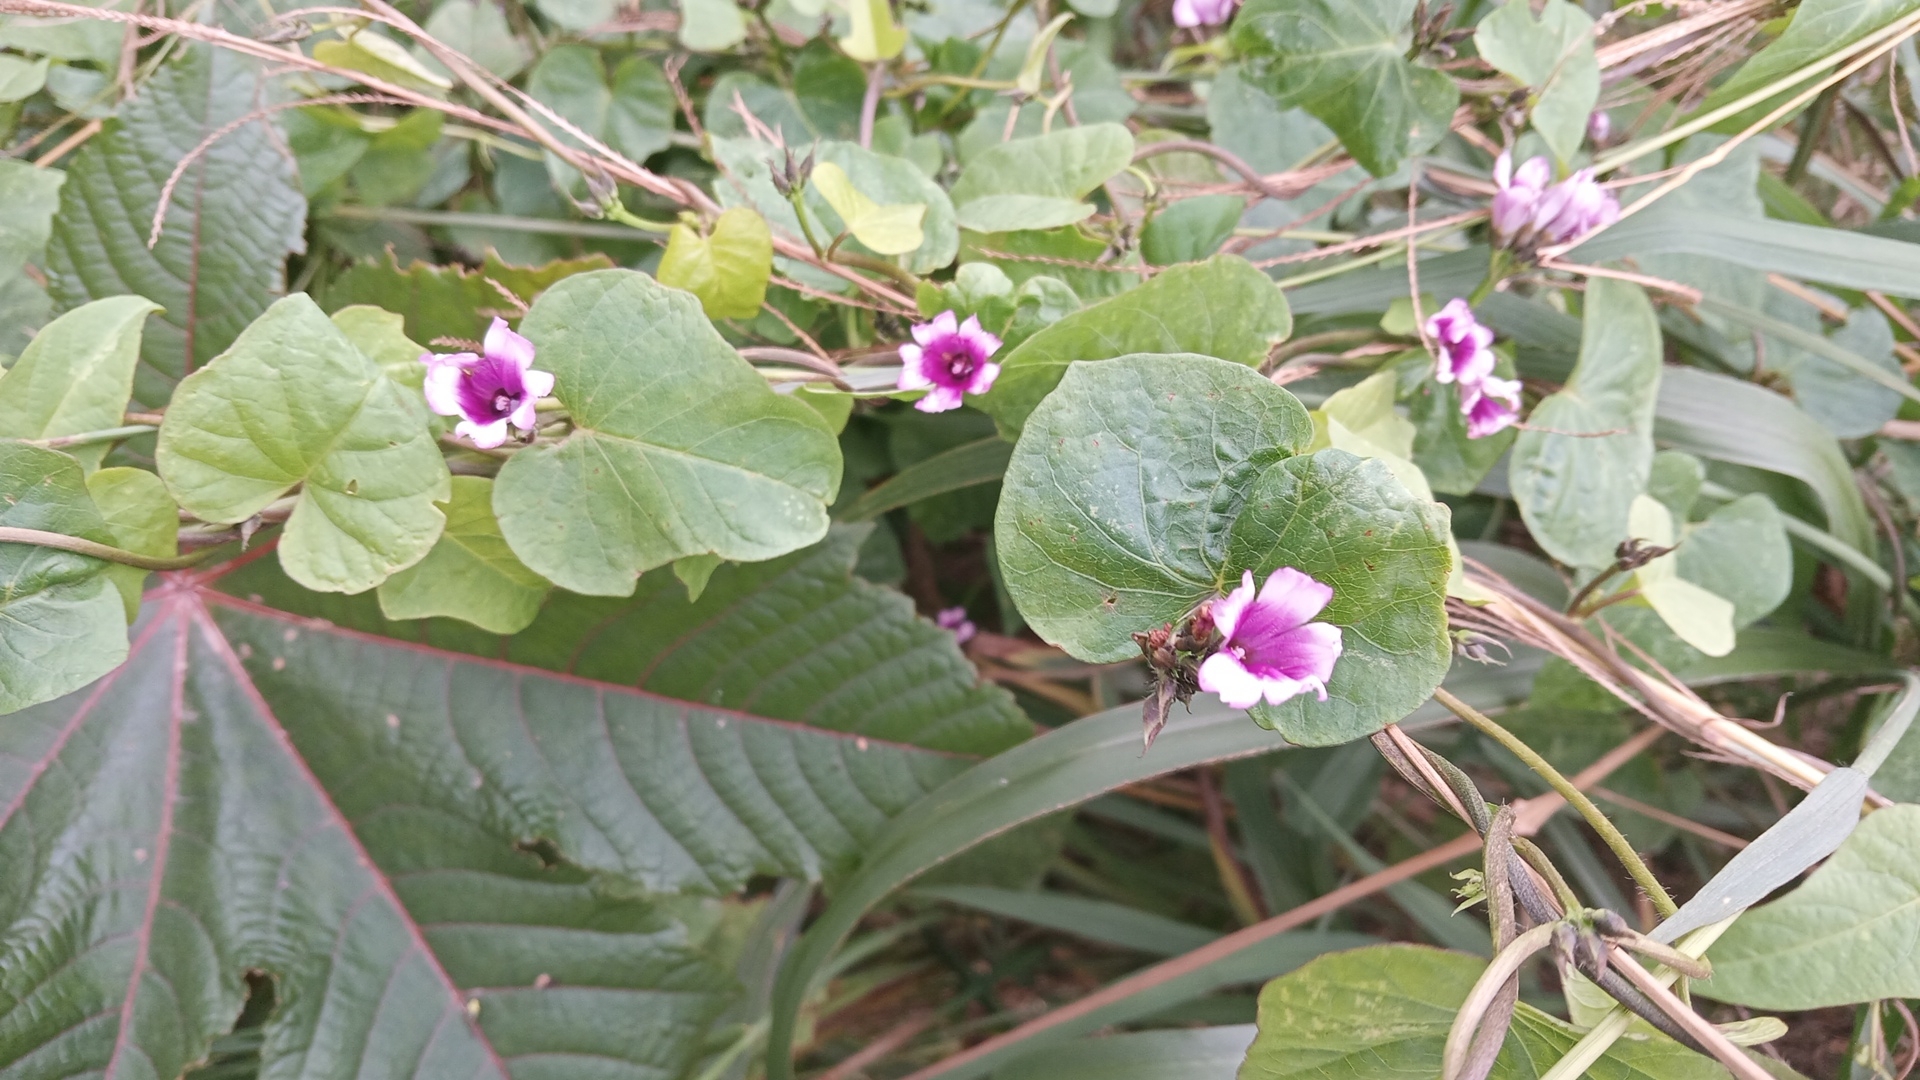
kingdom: Plantae
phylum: Tracheophyta
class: Magnoliopsida
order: Solanales
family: Convolvulaceae
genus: Ipomoea
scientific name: Ipomoea grandifolia
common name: Aiea morning glory
